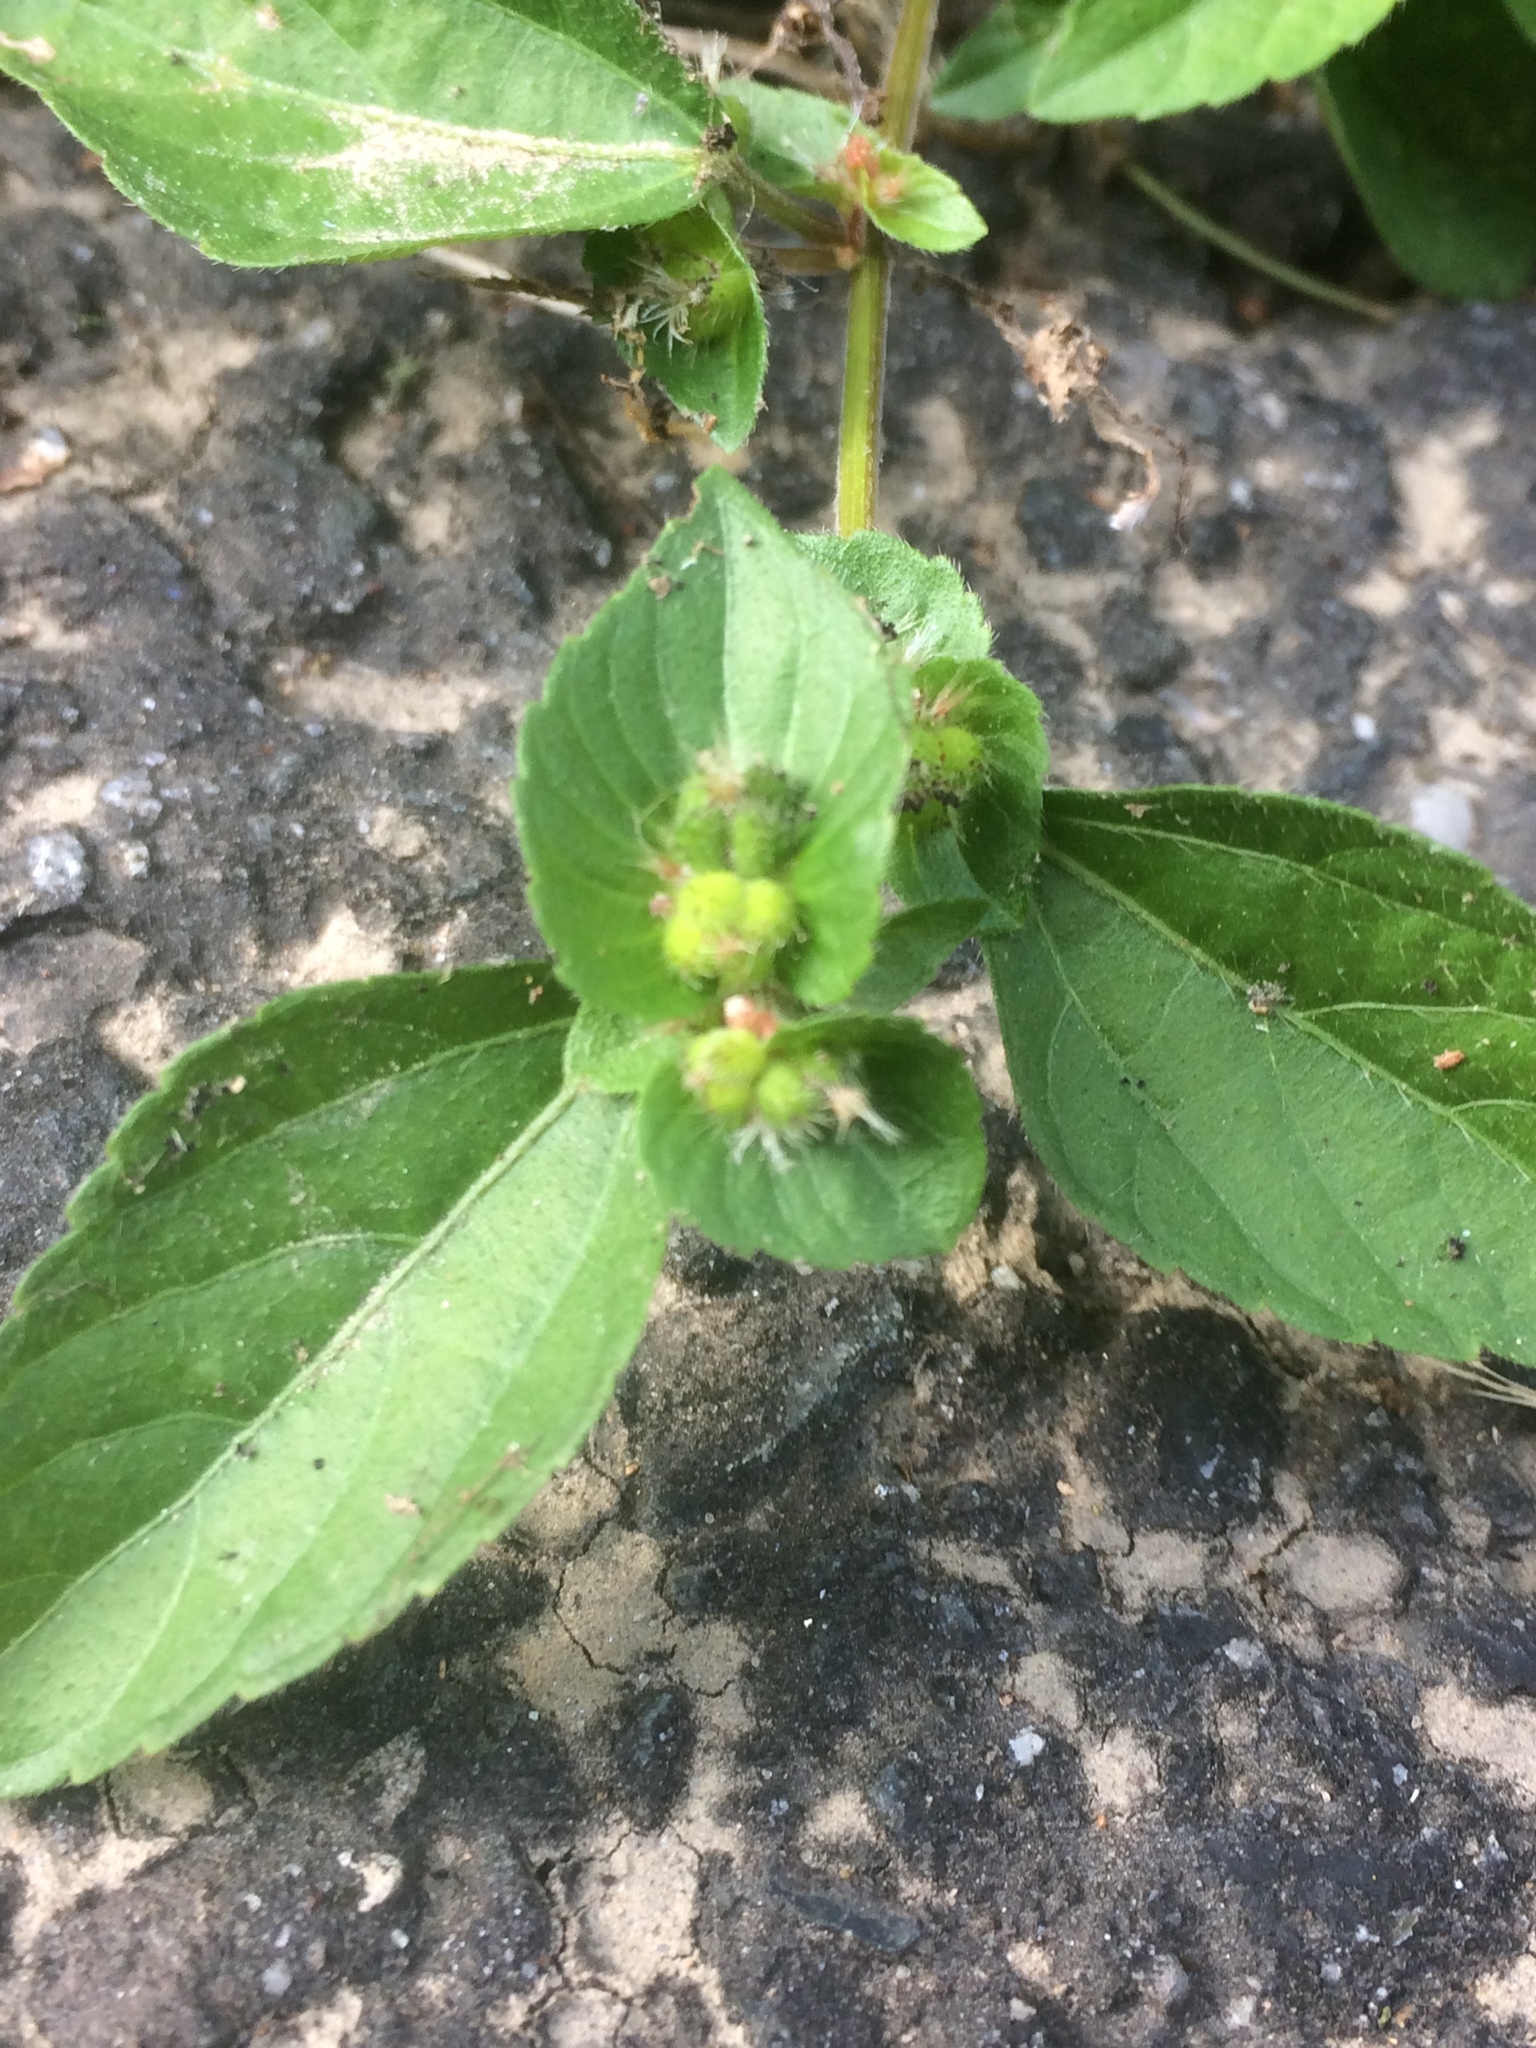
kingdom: Plantae
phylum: Tracheophyta
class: Magnoliopsida
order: Malpighiales
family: Euphorbiaceae
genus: Acalypha
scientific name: Acalypha australis
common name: Asian copperleaf
